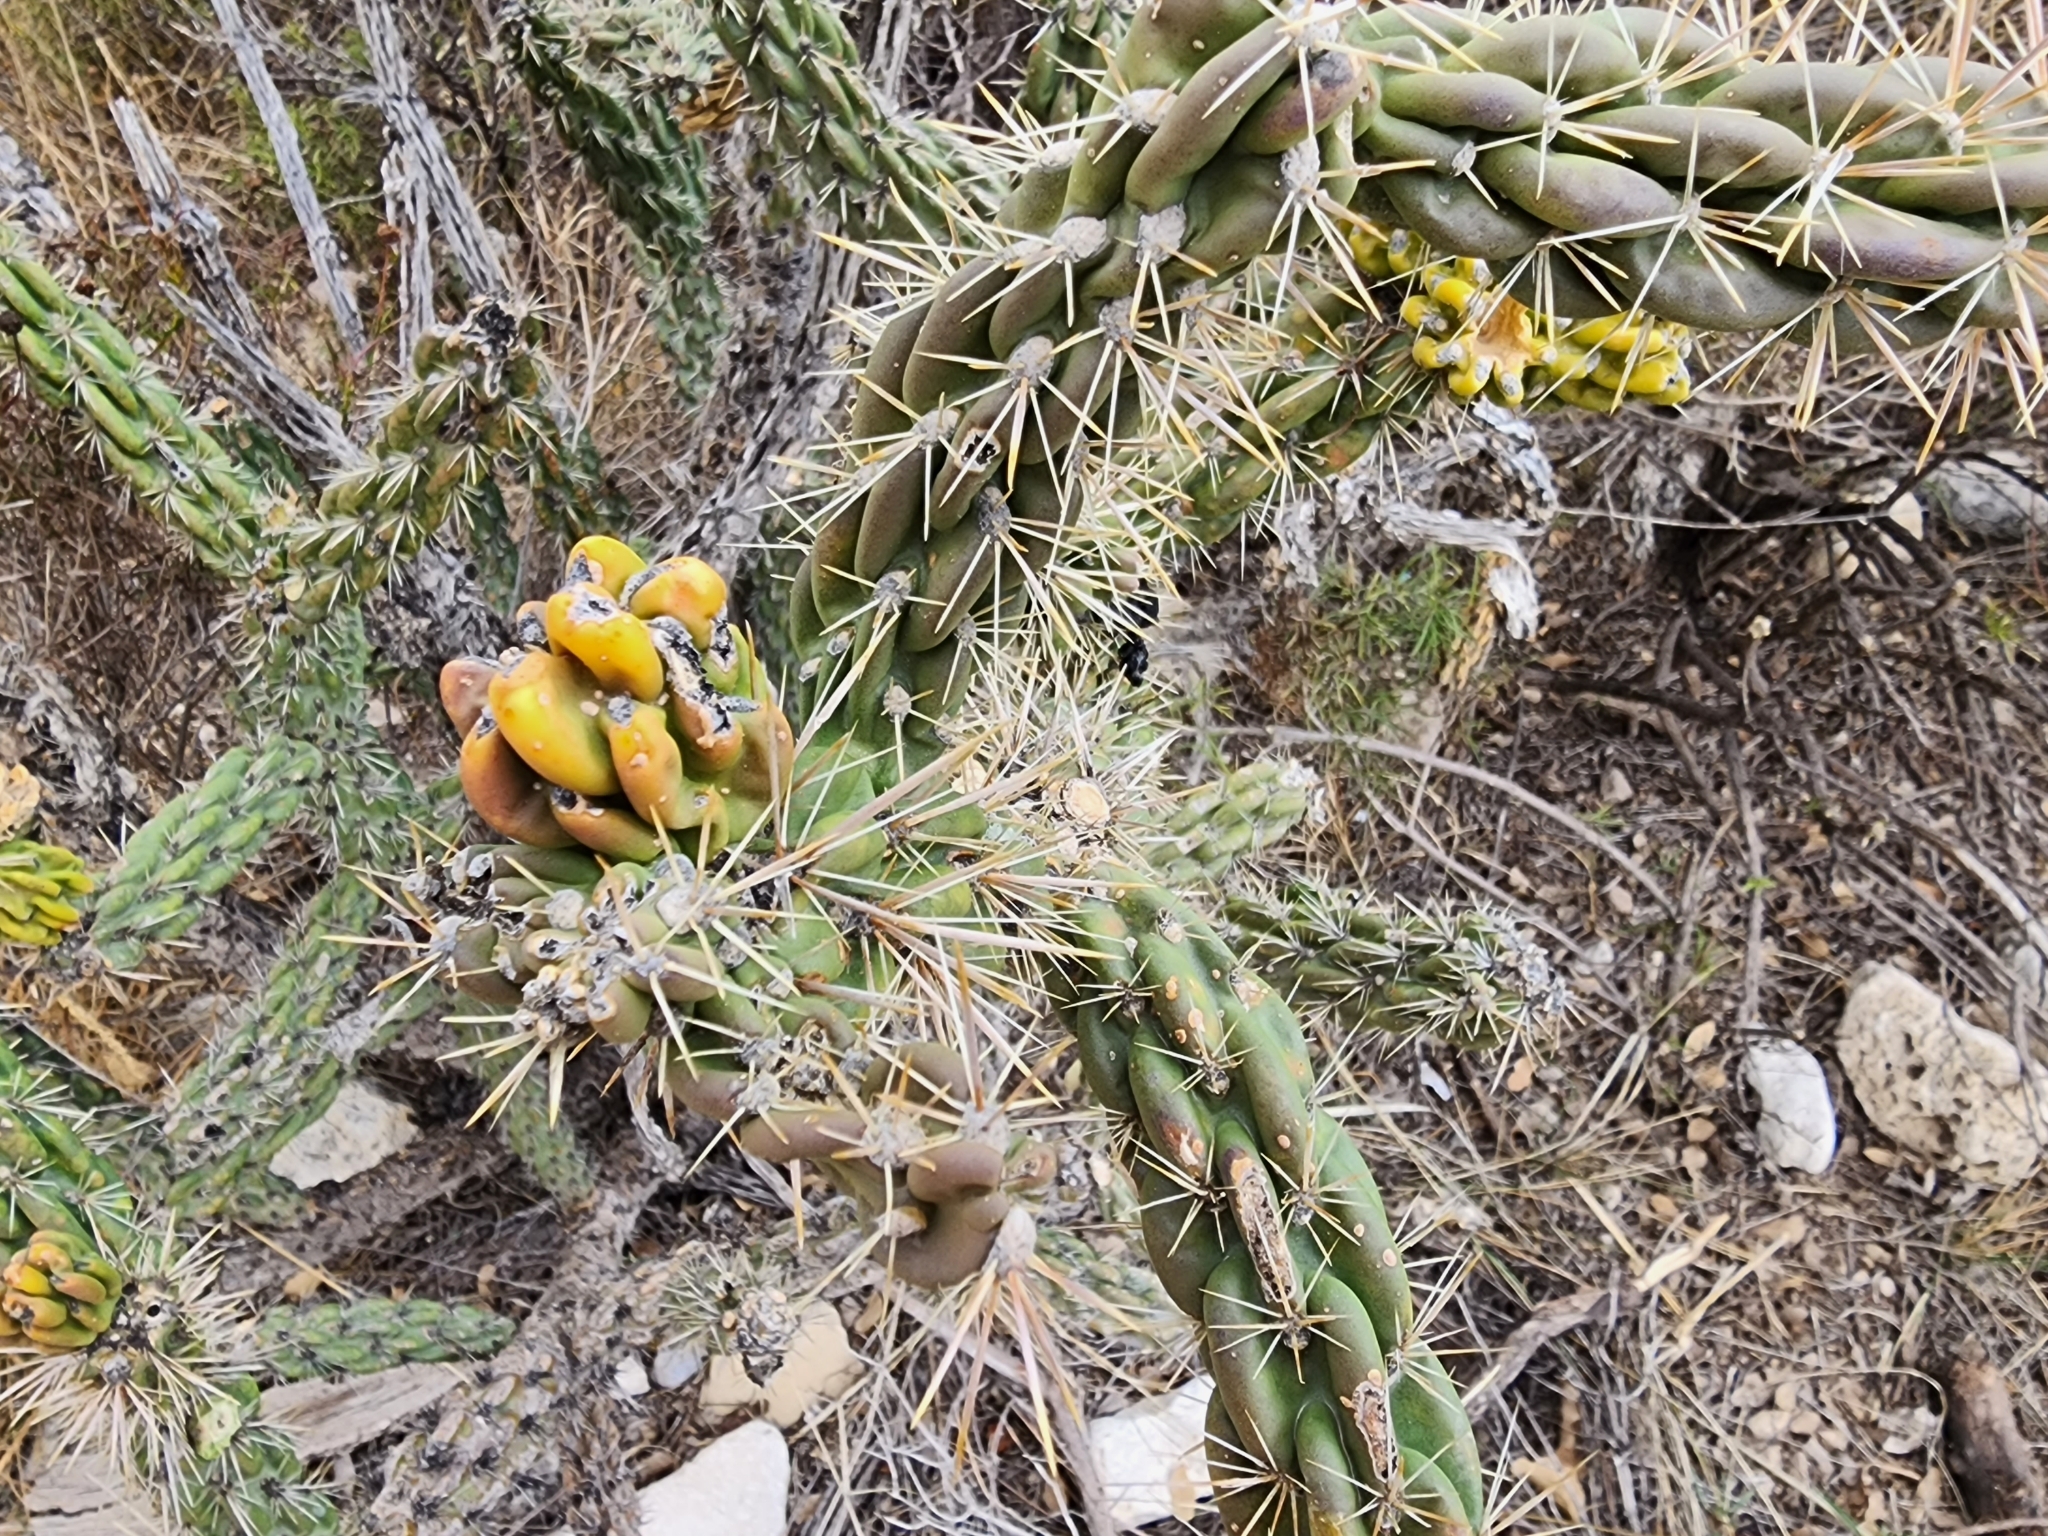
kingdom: Plantae
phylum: Tracheophyta
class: Magnoliopsida
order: Caryophyllales
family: Cactaceae
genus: Cylindropuntia
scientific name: Cylindropuntia imbricata
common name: Candelabrum cactus
